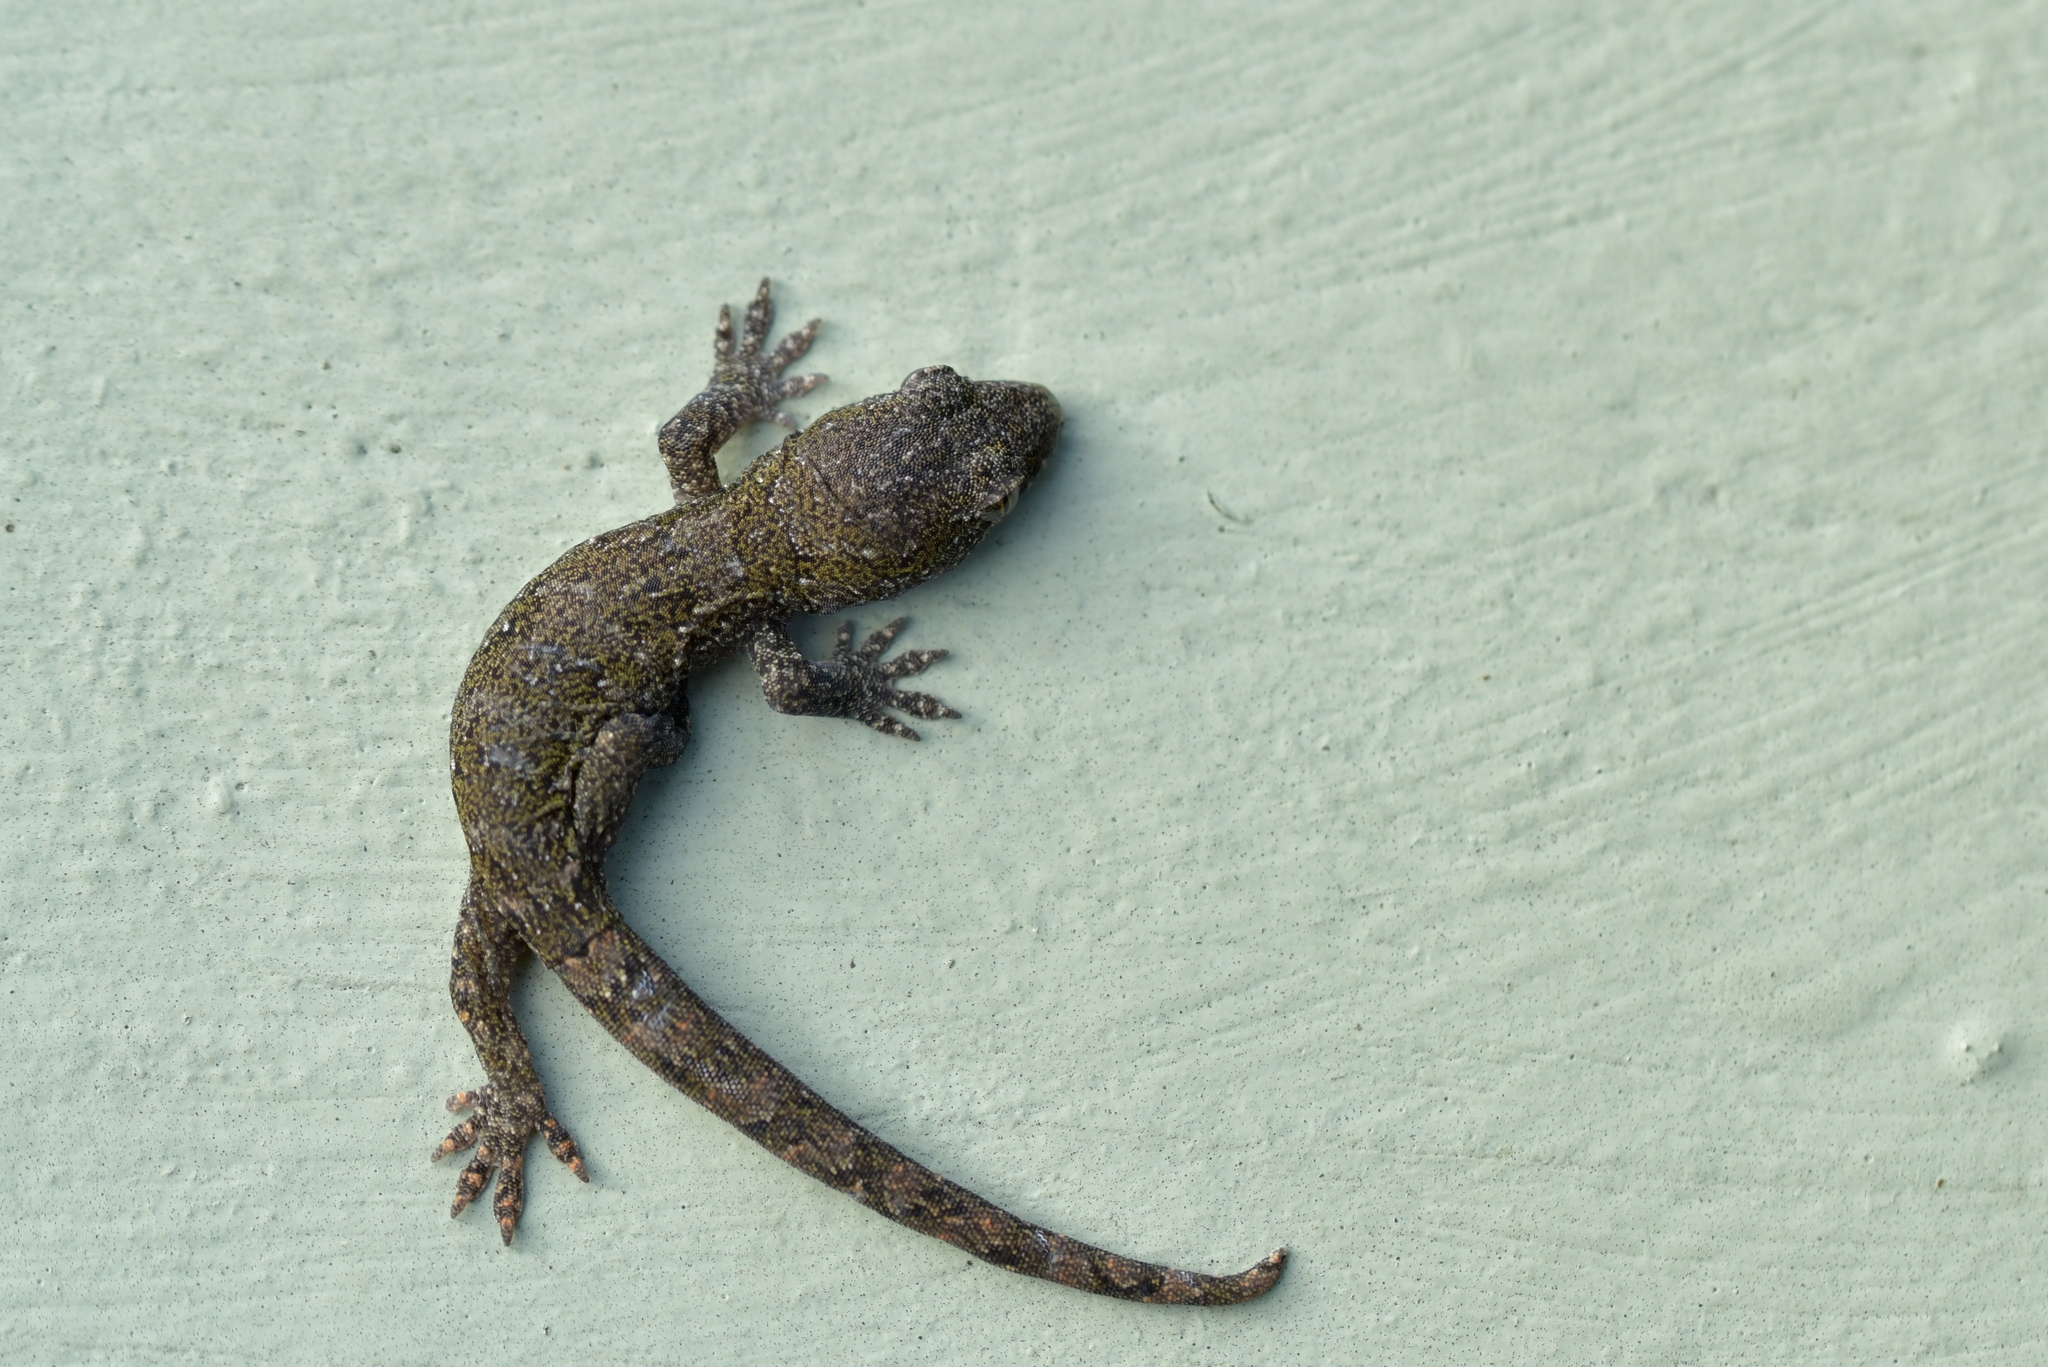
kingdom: Animalia
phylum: Chordata
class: Squamata
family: Diplodactylidae
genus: Woodworthia
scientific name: Woodworthia maculata
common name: Raukawa gecko
